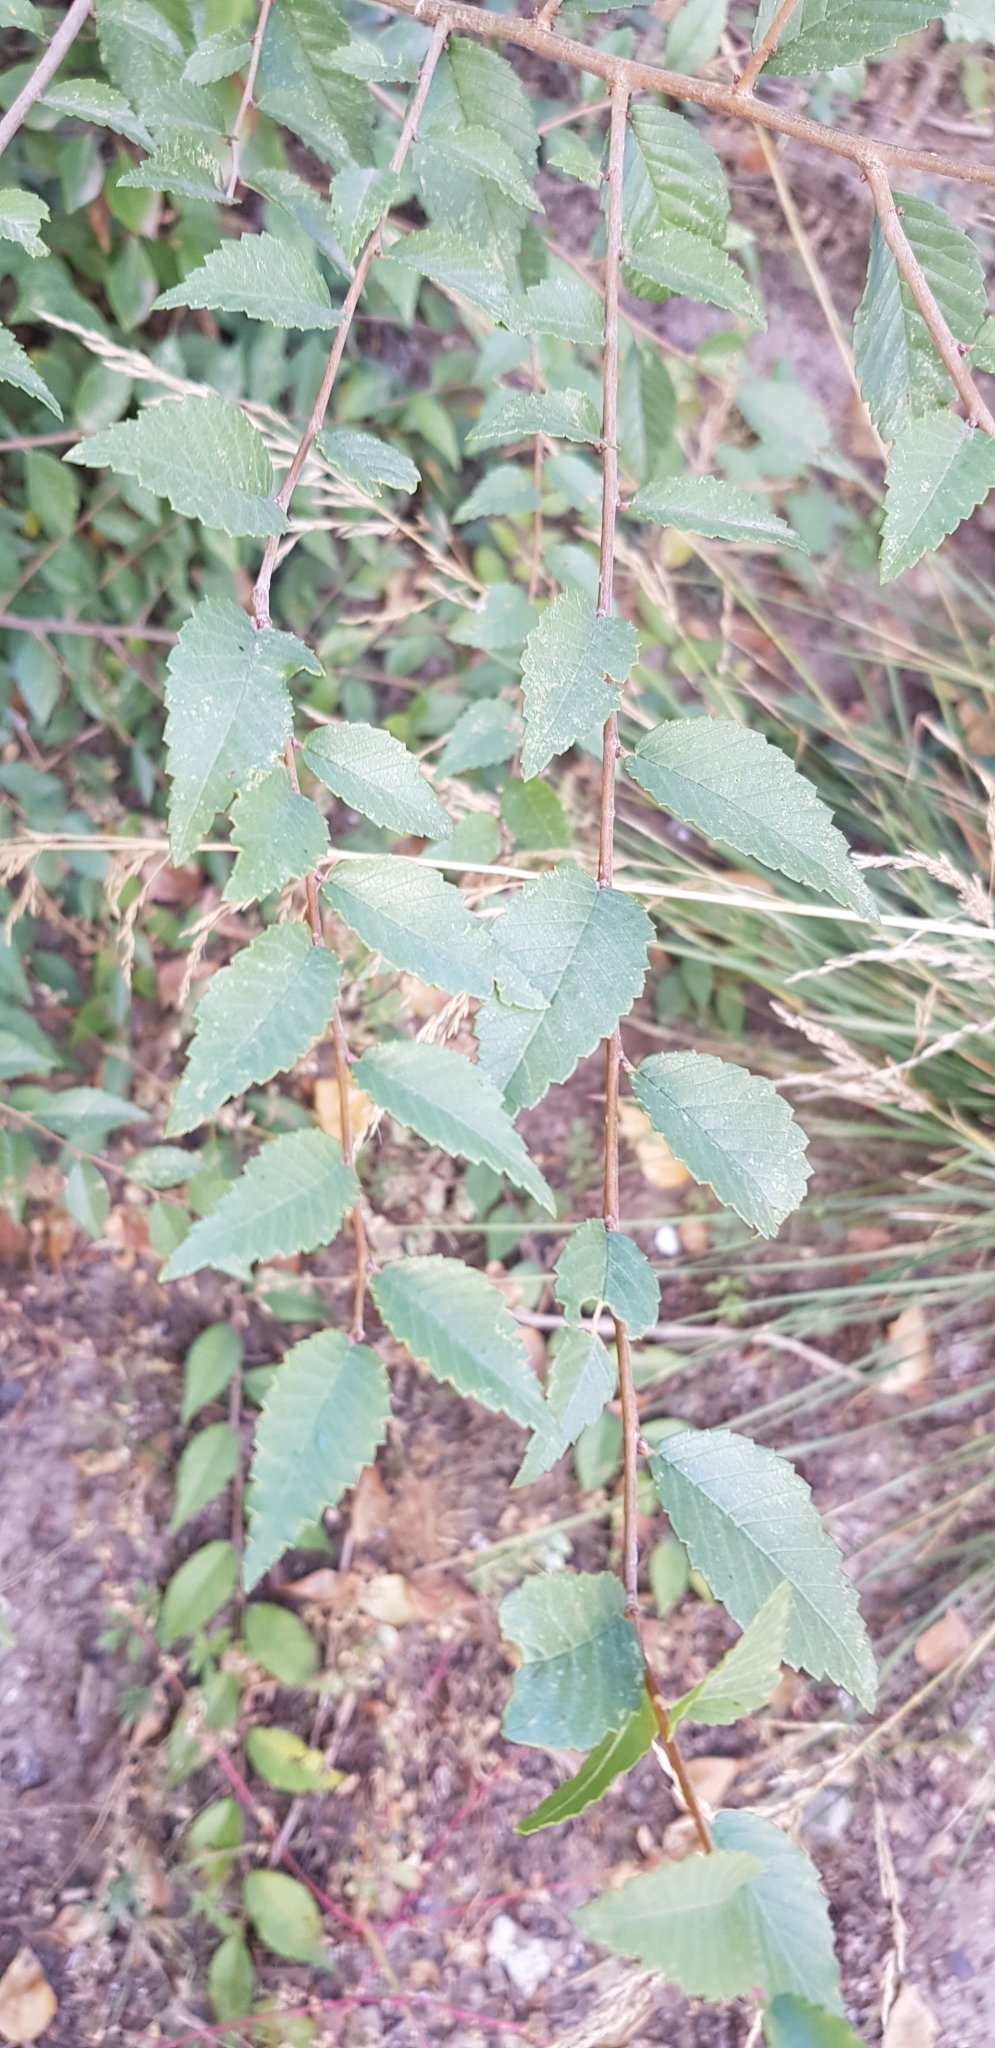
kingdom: Plantae
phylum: Tracheophyta
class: Magnoliopsida
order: Rosales
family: Ulmaceae
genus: Ulmus
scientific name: Ulmus pumila
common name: Siberian elm
